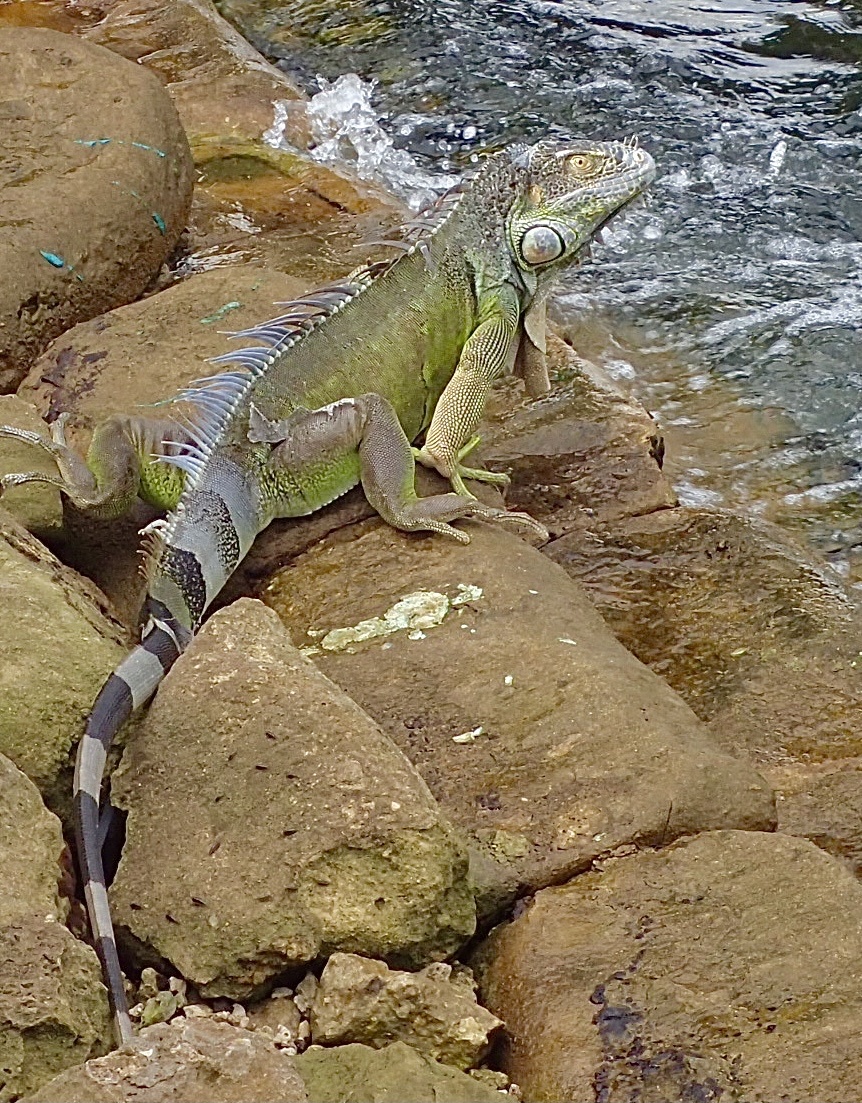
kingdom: Animalia
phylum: Chordata
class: Squamata
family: Iguanidae
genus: Iguana
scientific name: Iguana iguana
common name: Green iguana
